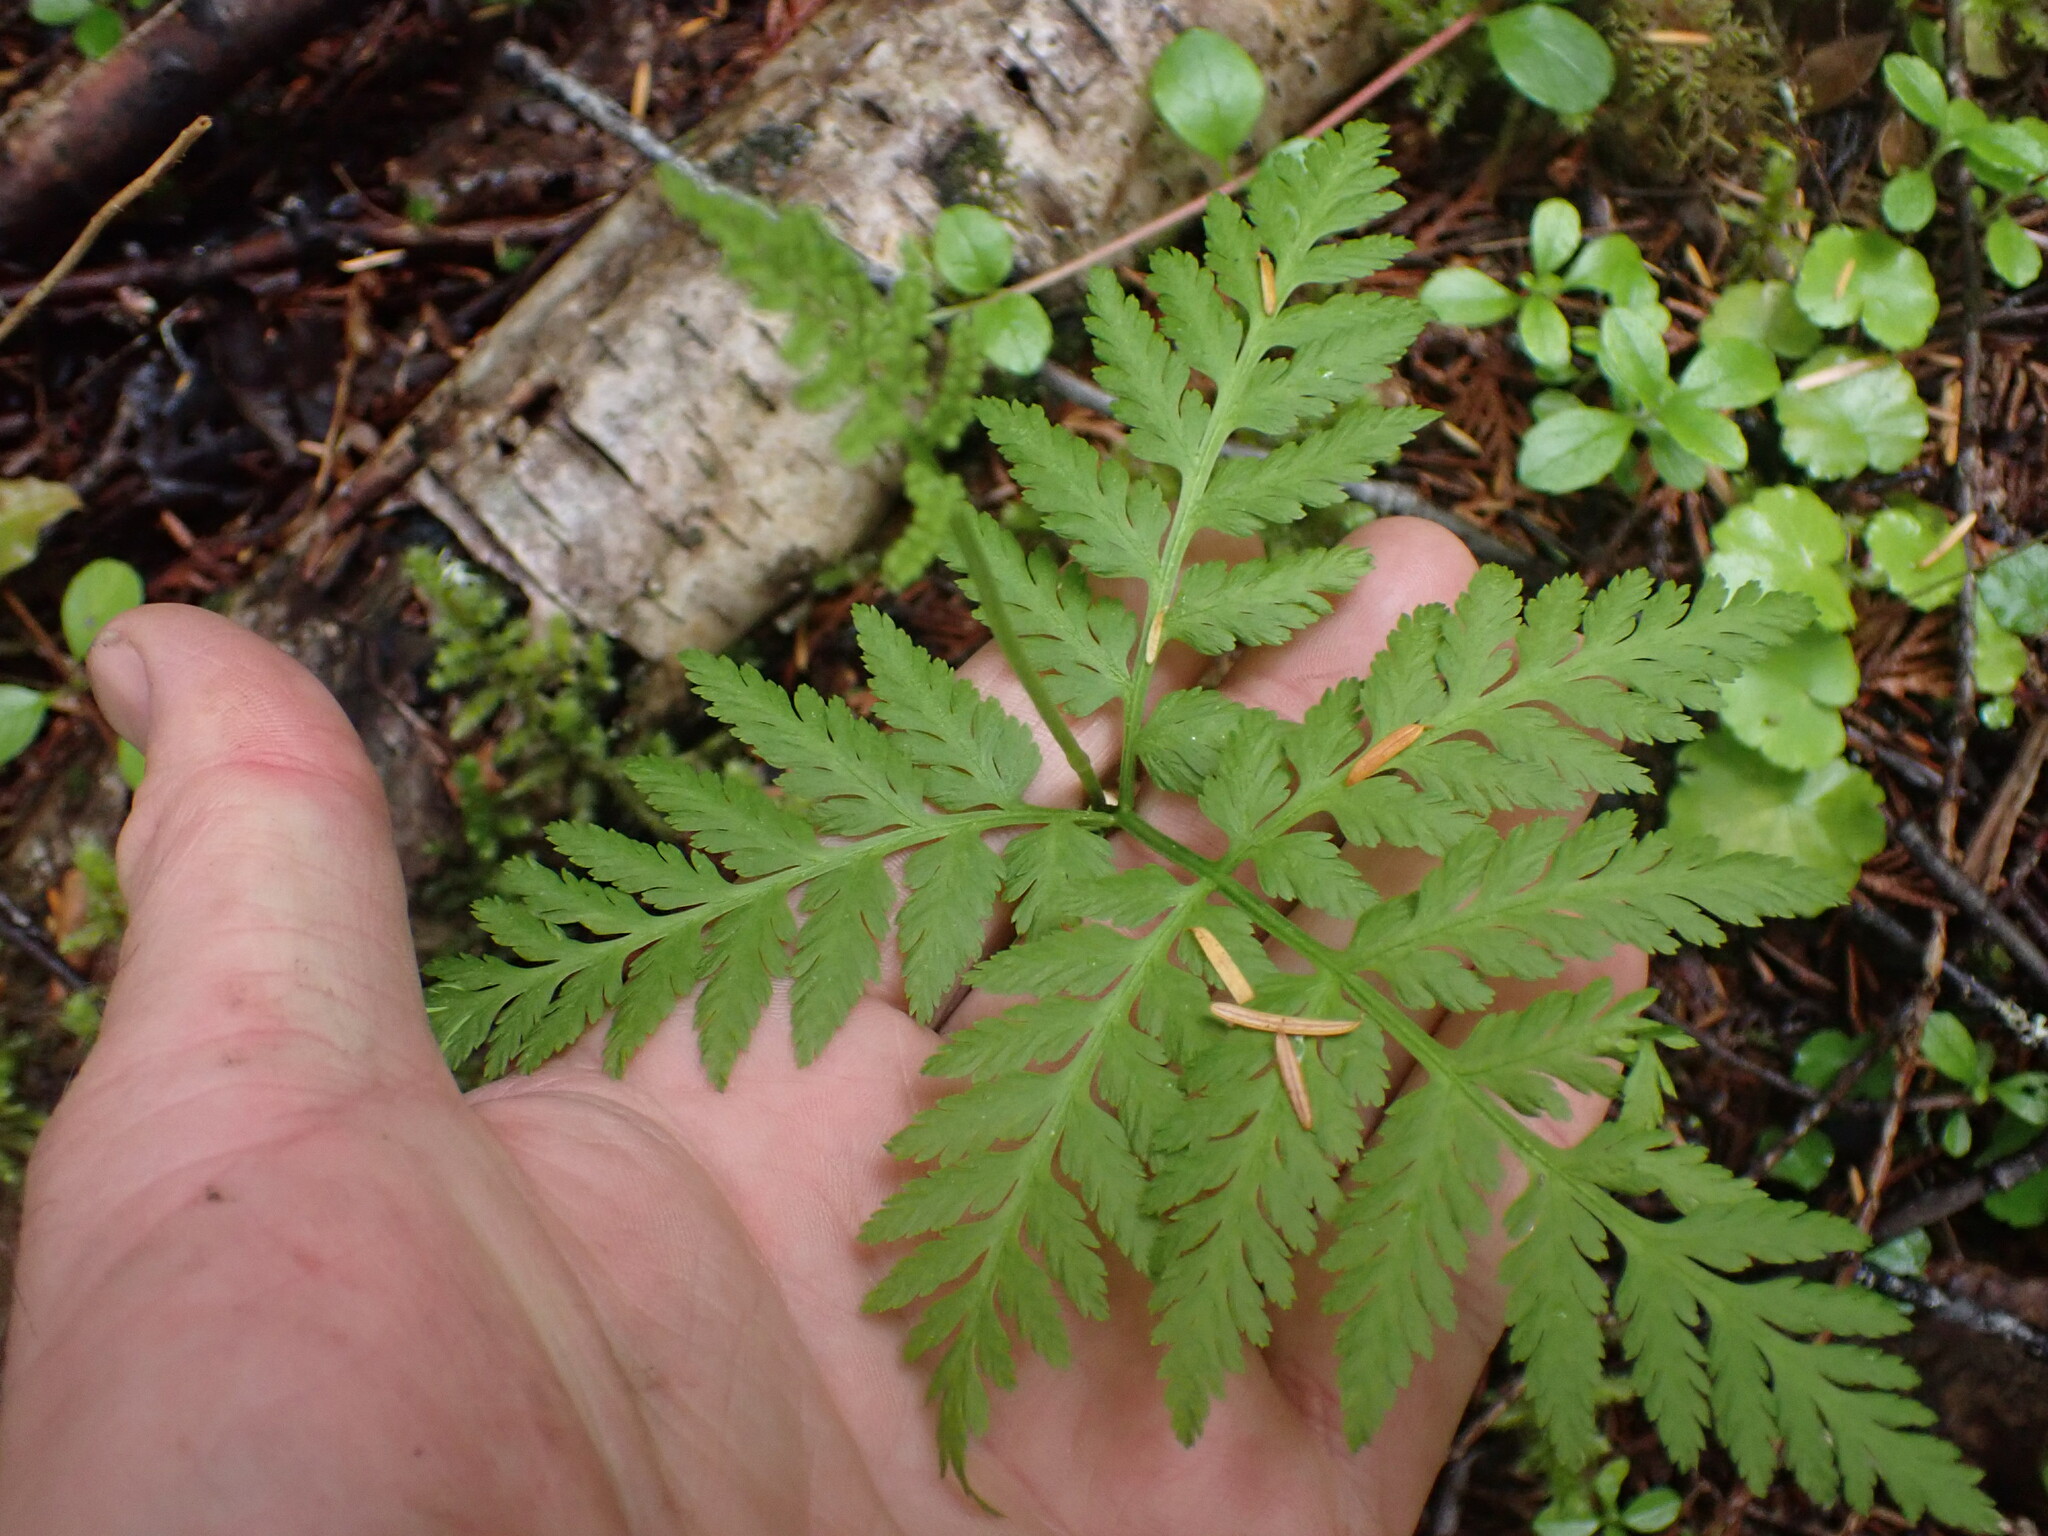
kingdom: Plantae
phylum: Tracheophyta
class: Polypodiopsida
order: Ophioglossales
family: Ophioglossaceae
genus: Botrypus
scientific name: Botrypus virginianus
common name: Common grapefern
